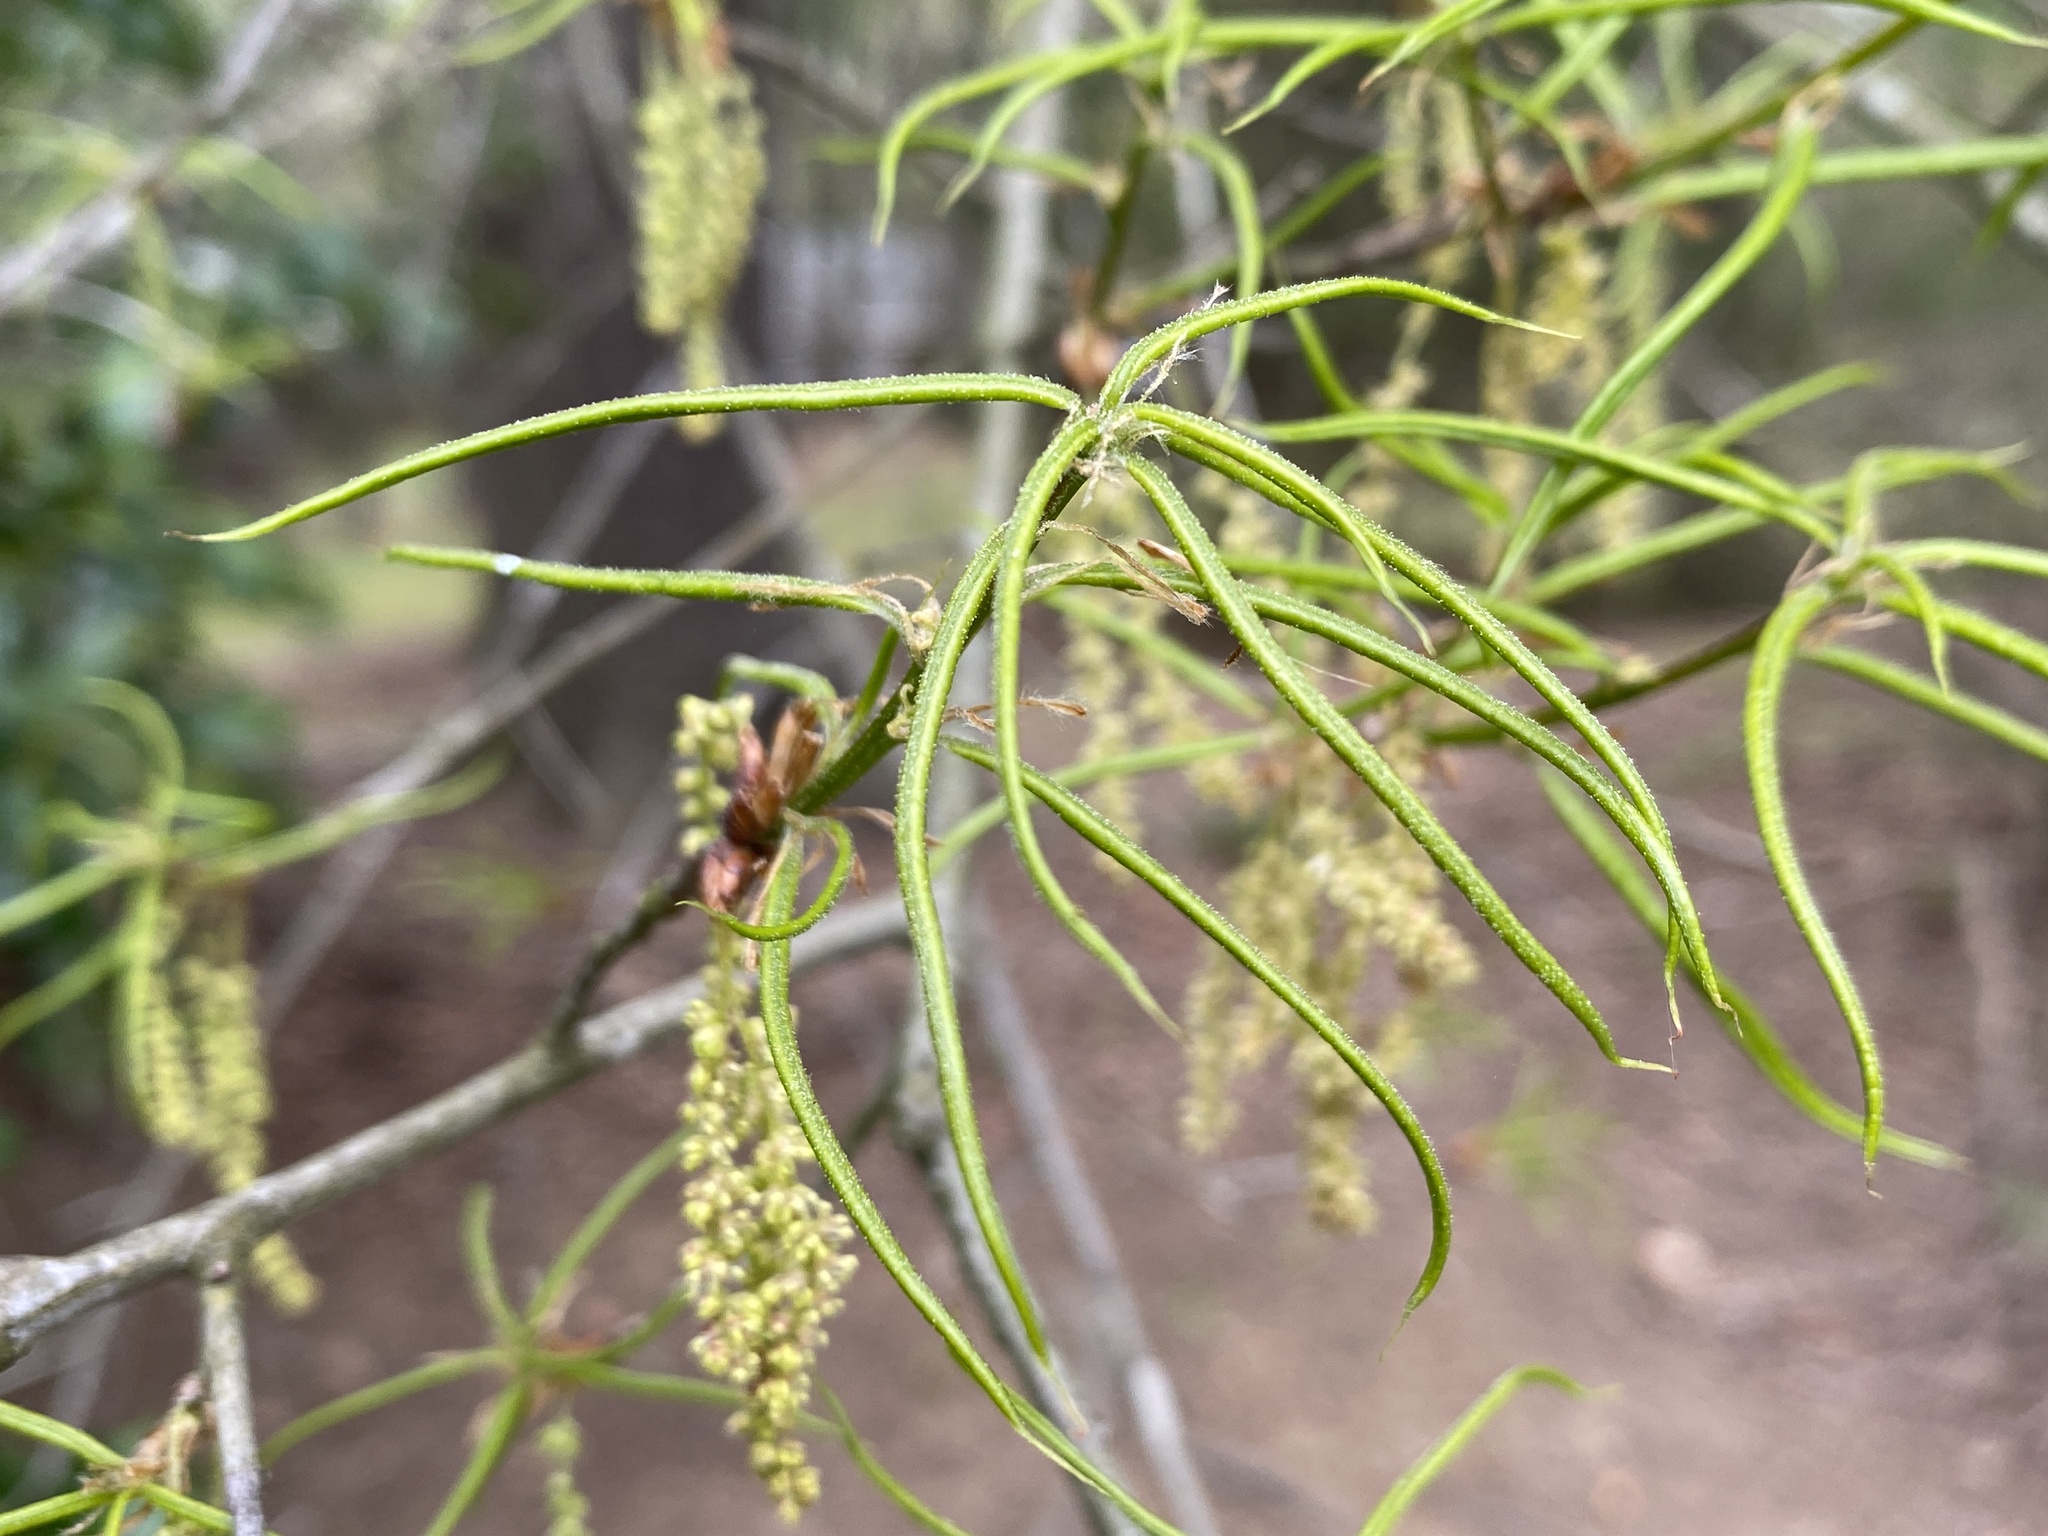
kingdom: Plantae
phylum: Tracheophyta
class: Magnoliopsida
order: Fagales
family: Fagaceae
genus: Quercus
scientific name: Quercus phellos
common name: Willow oak
